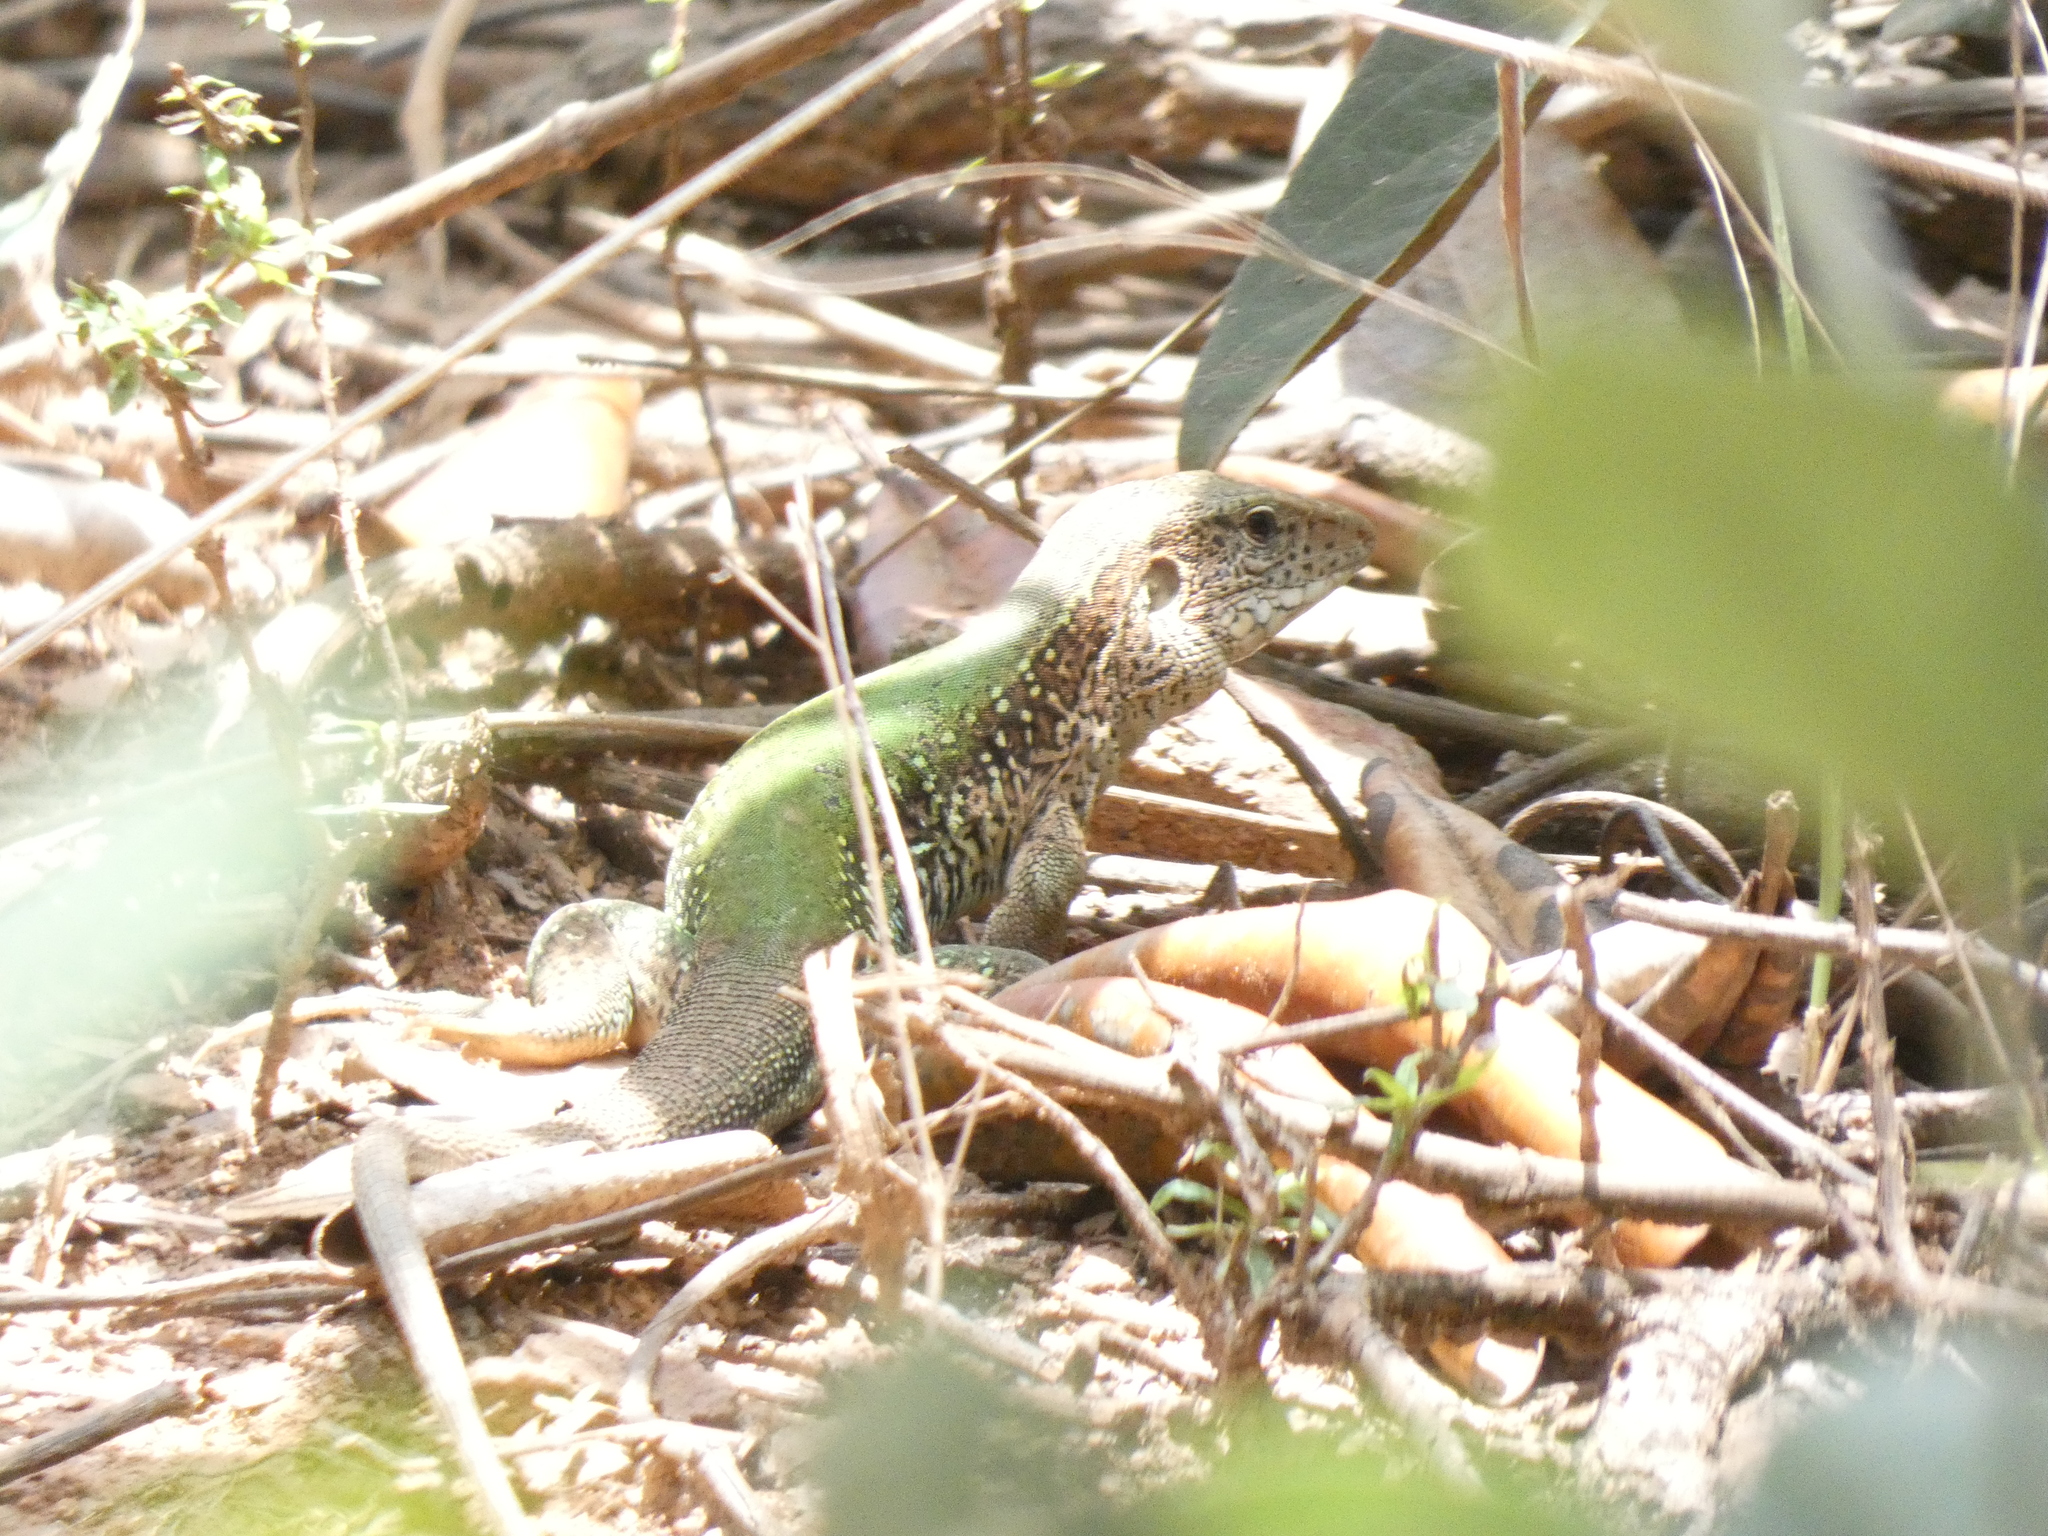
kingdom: Animalia
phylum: Chordata
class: Squamata
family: Teiidae
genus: Ameiva
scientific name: Ameiva ameiva
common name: Giant ameiva
